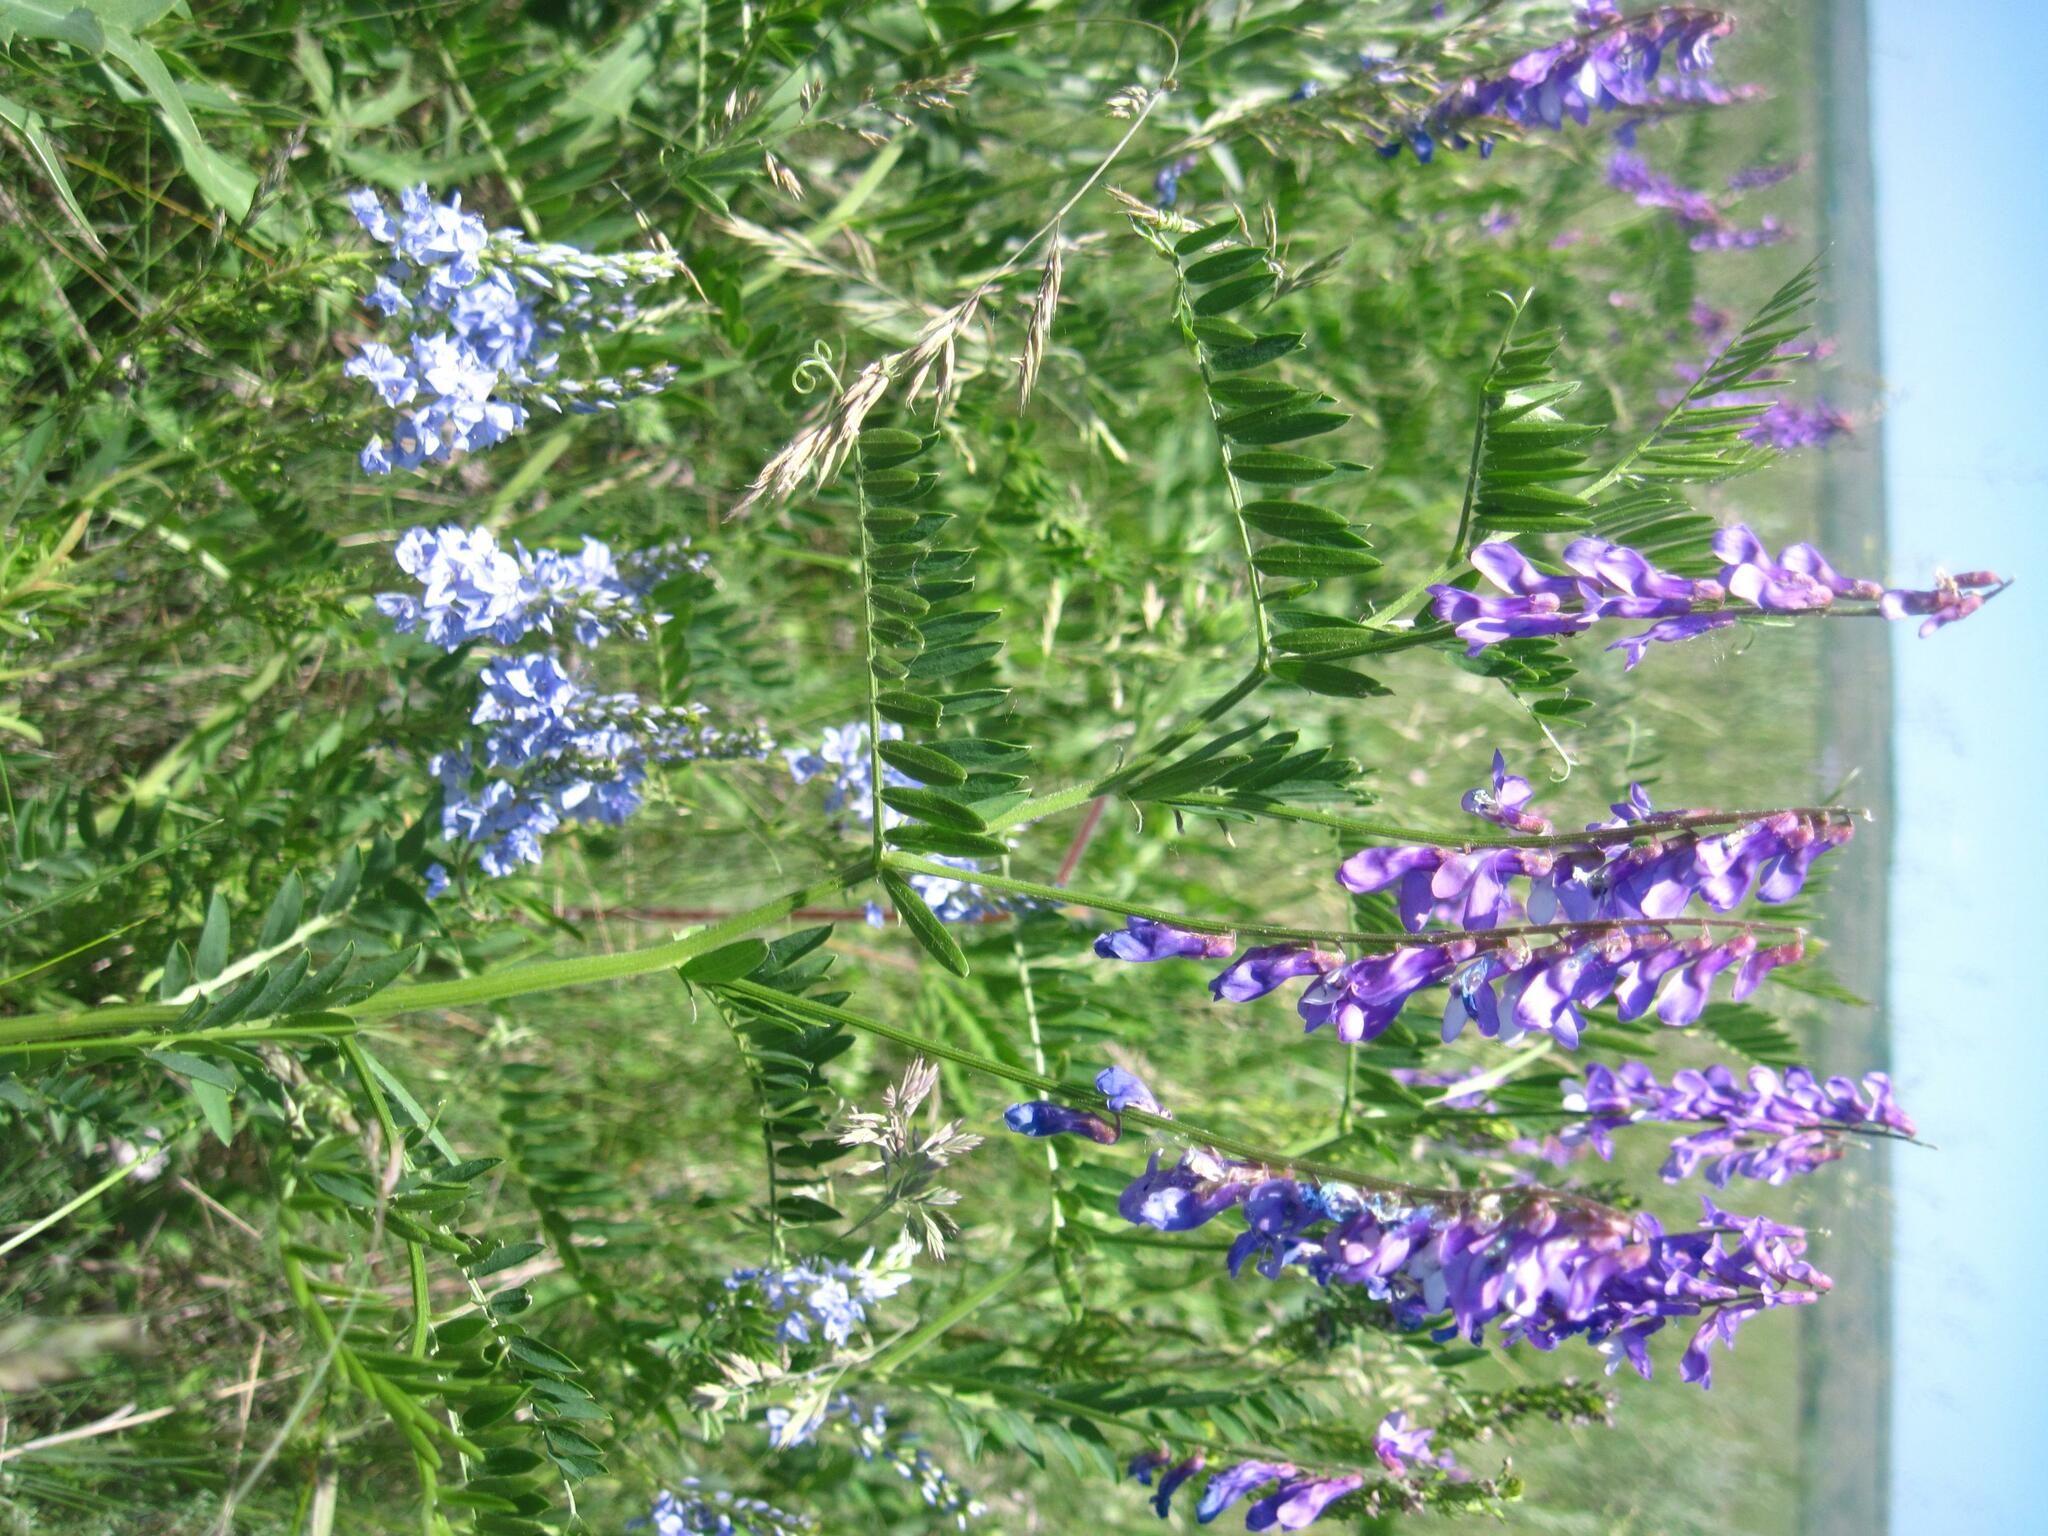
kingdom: Plantae
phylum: Tracheophyta
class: Magnoliopsida
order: Fabales
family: Fabaceae
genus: Vicia
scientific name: Vicia tenuifolia
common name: Fine-leaved vetch
